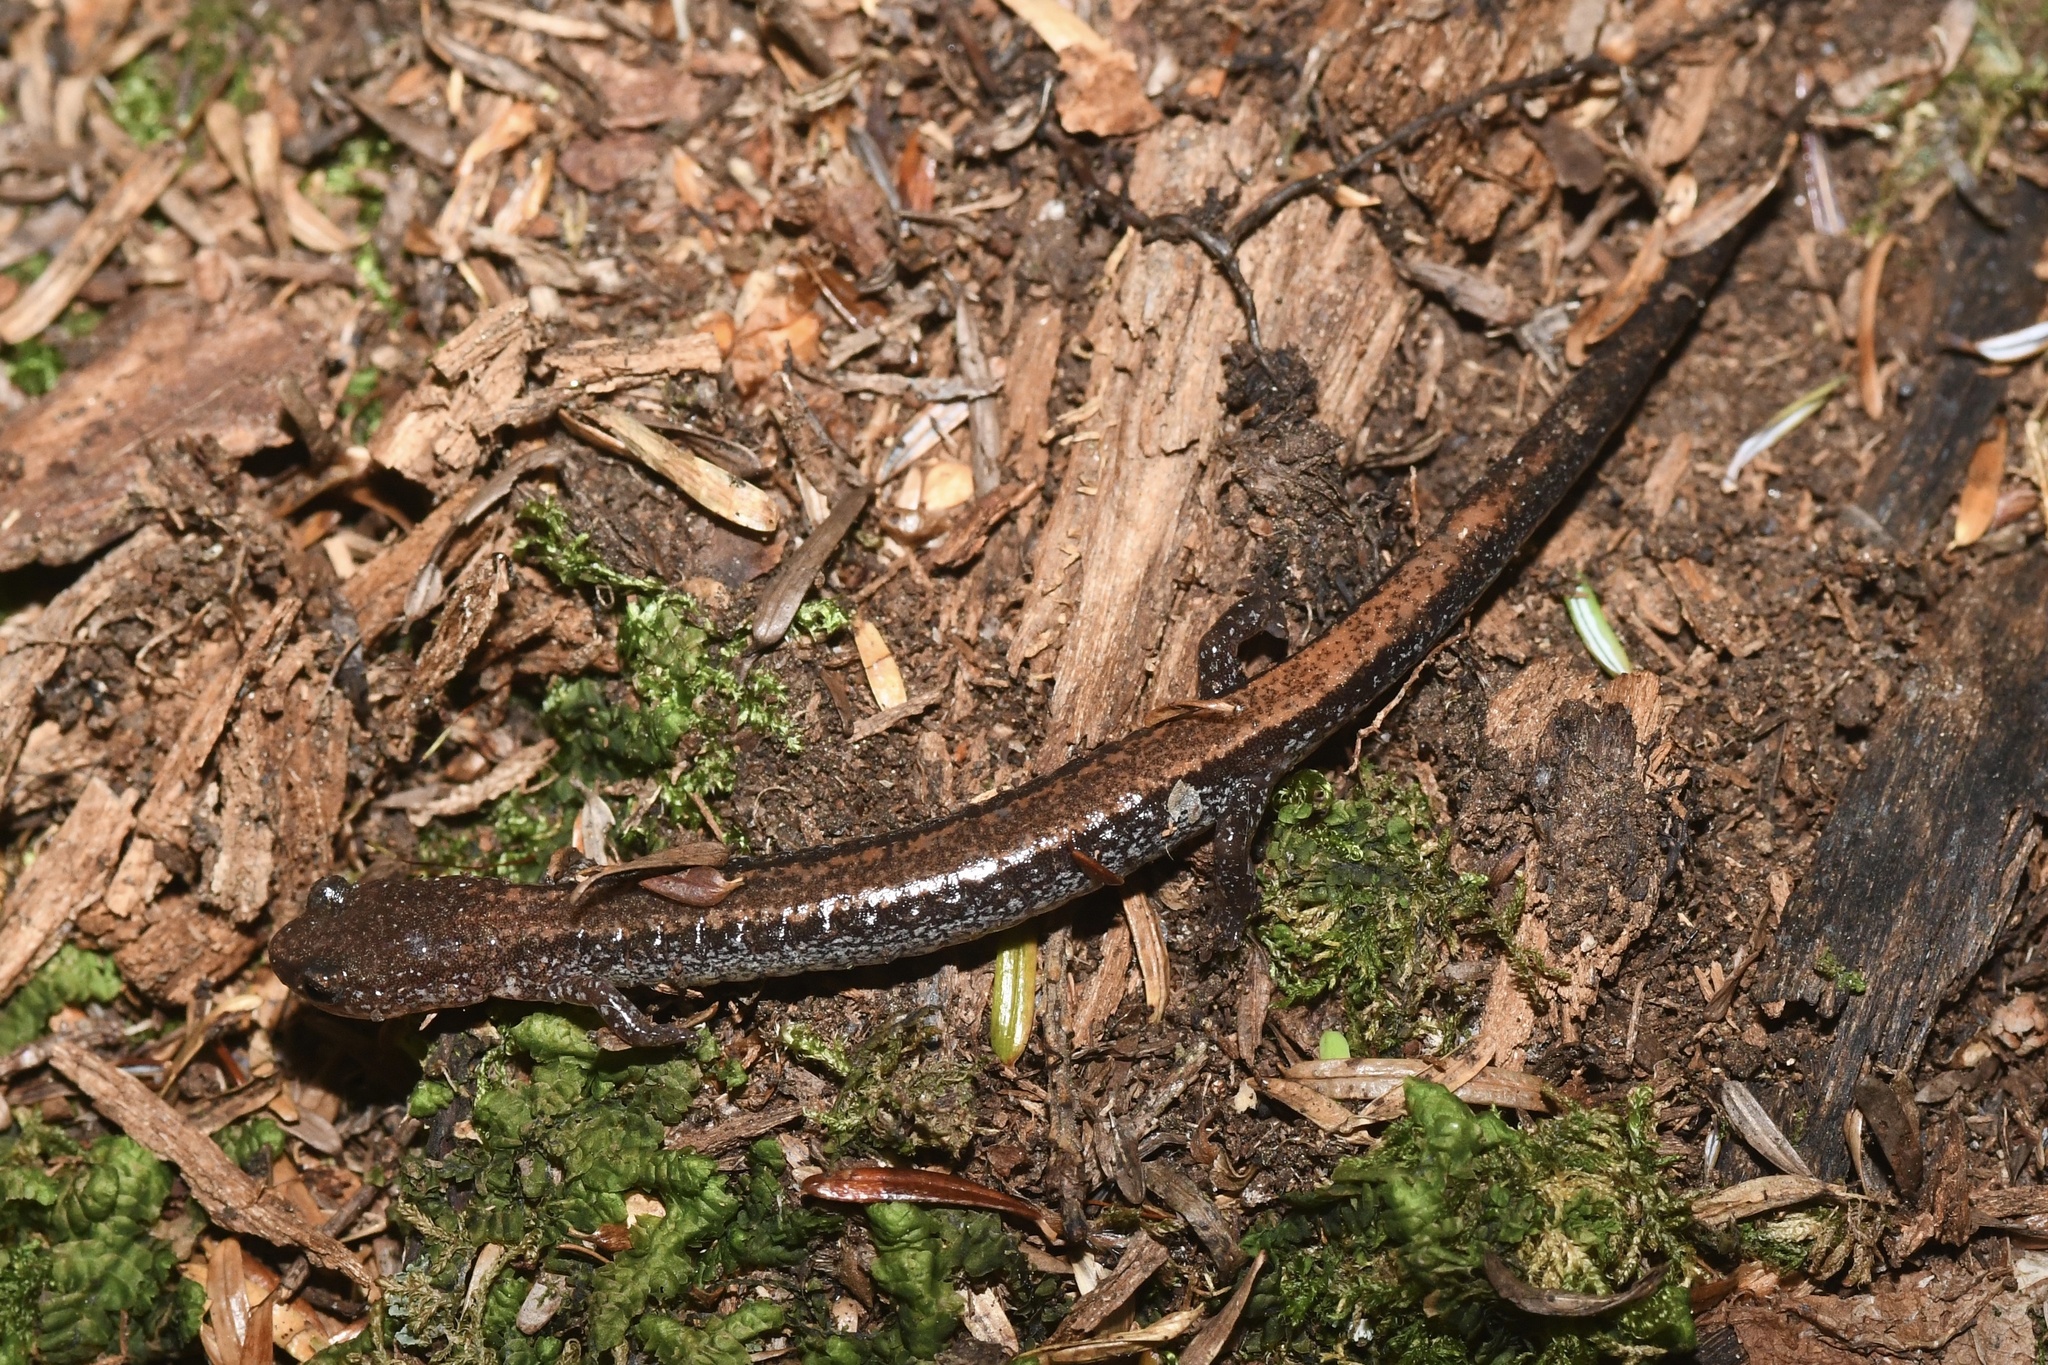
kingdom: Animalia
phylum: Chordata
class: Amphibia
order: Caudata
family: Plethodontidae
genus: Plethodon
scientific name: Plethodon cinereus
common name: Redback salamander
